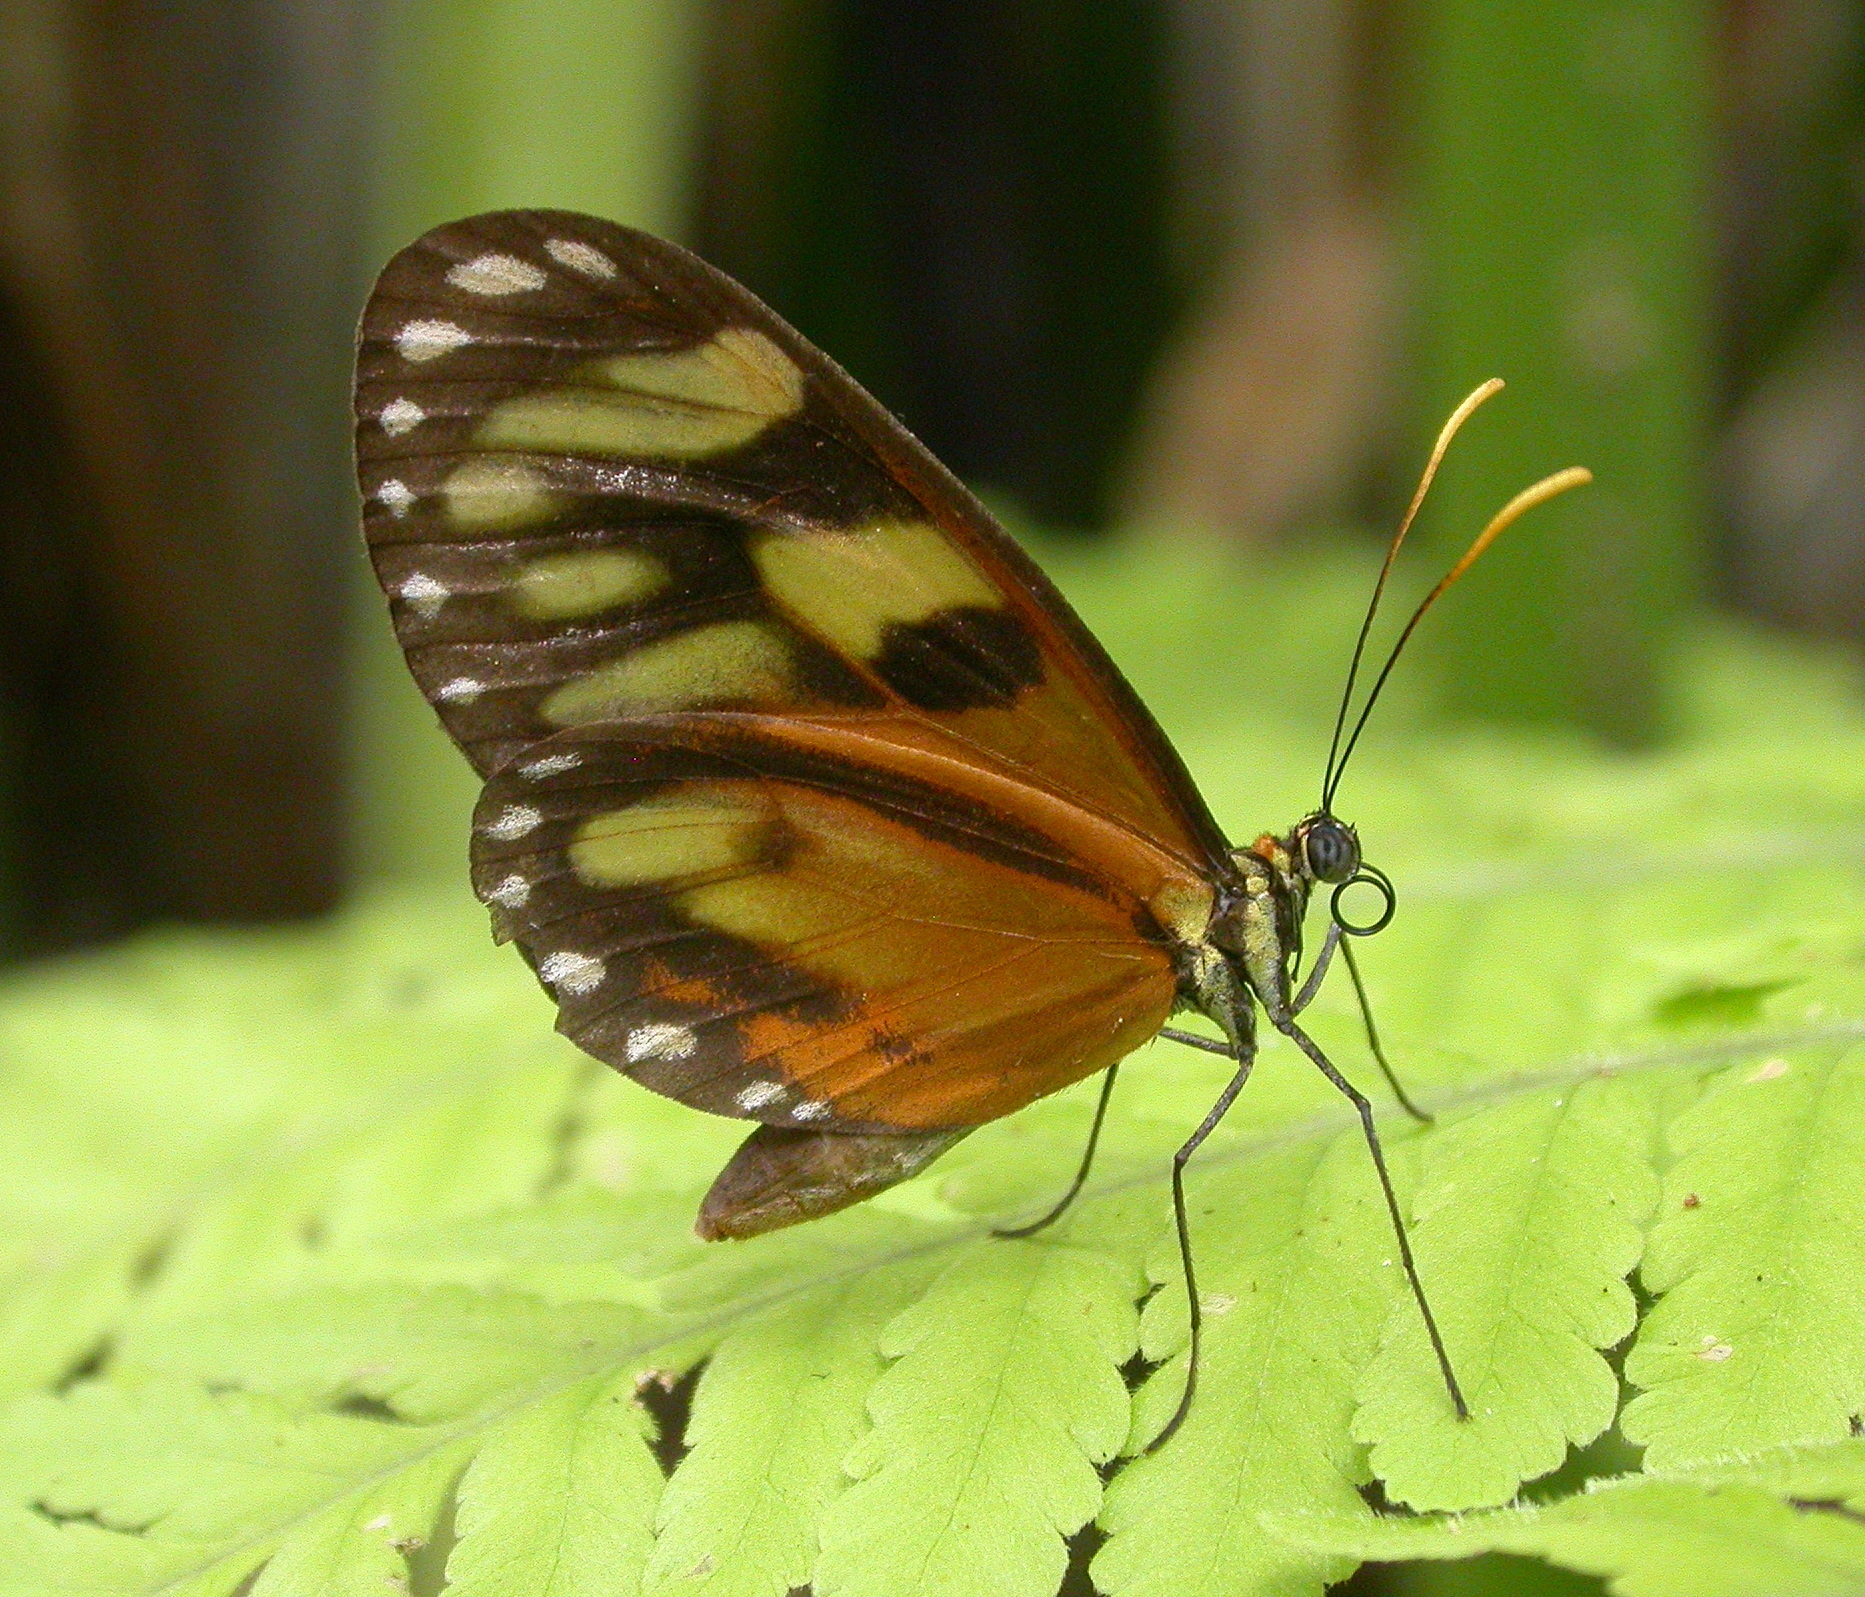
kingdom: Animalia
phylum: Arthropoda
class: Insecta
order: Lepidoptera
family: Nymphalidae
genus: Ithomia
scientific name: Ithomia iphianassa
